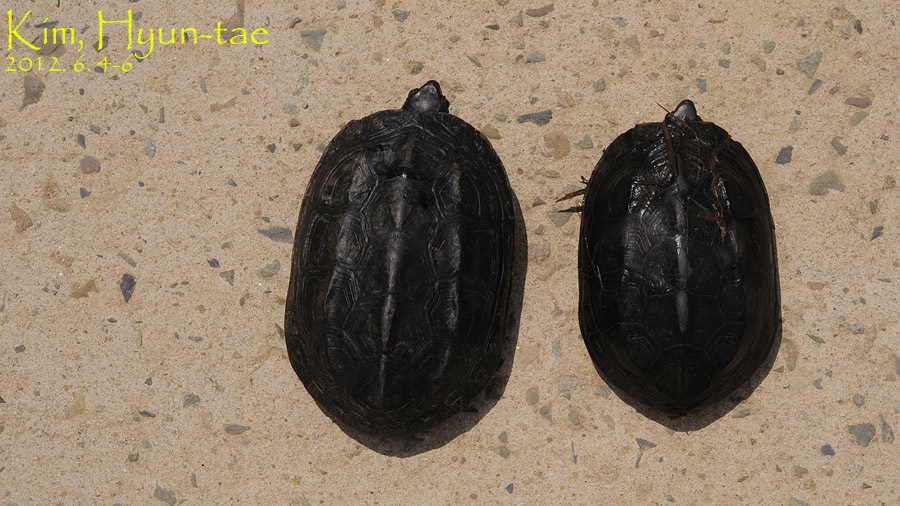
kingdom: Animalia
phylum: Chordata
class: Testudines
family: Geoemydidae
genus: Mauremys
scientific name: Mauremys reevesii
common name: Chinese pond turtle
